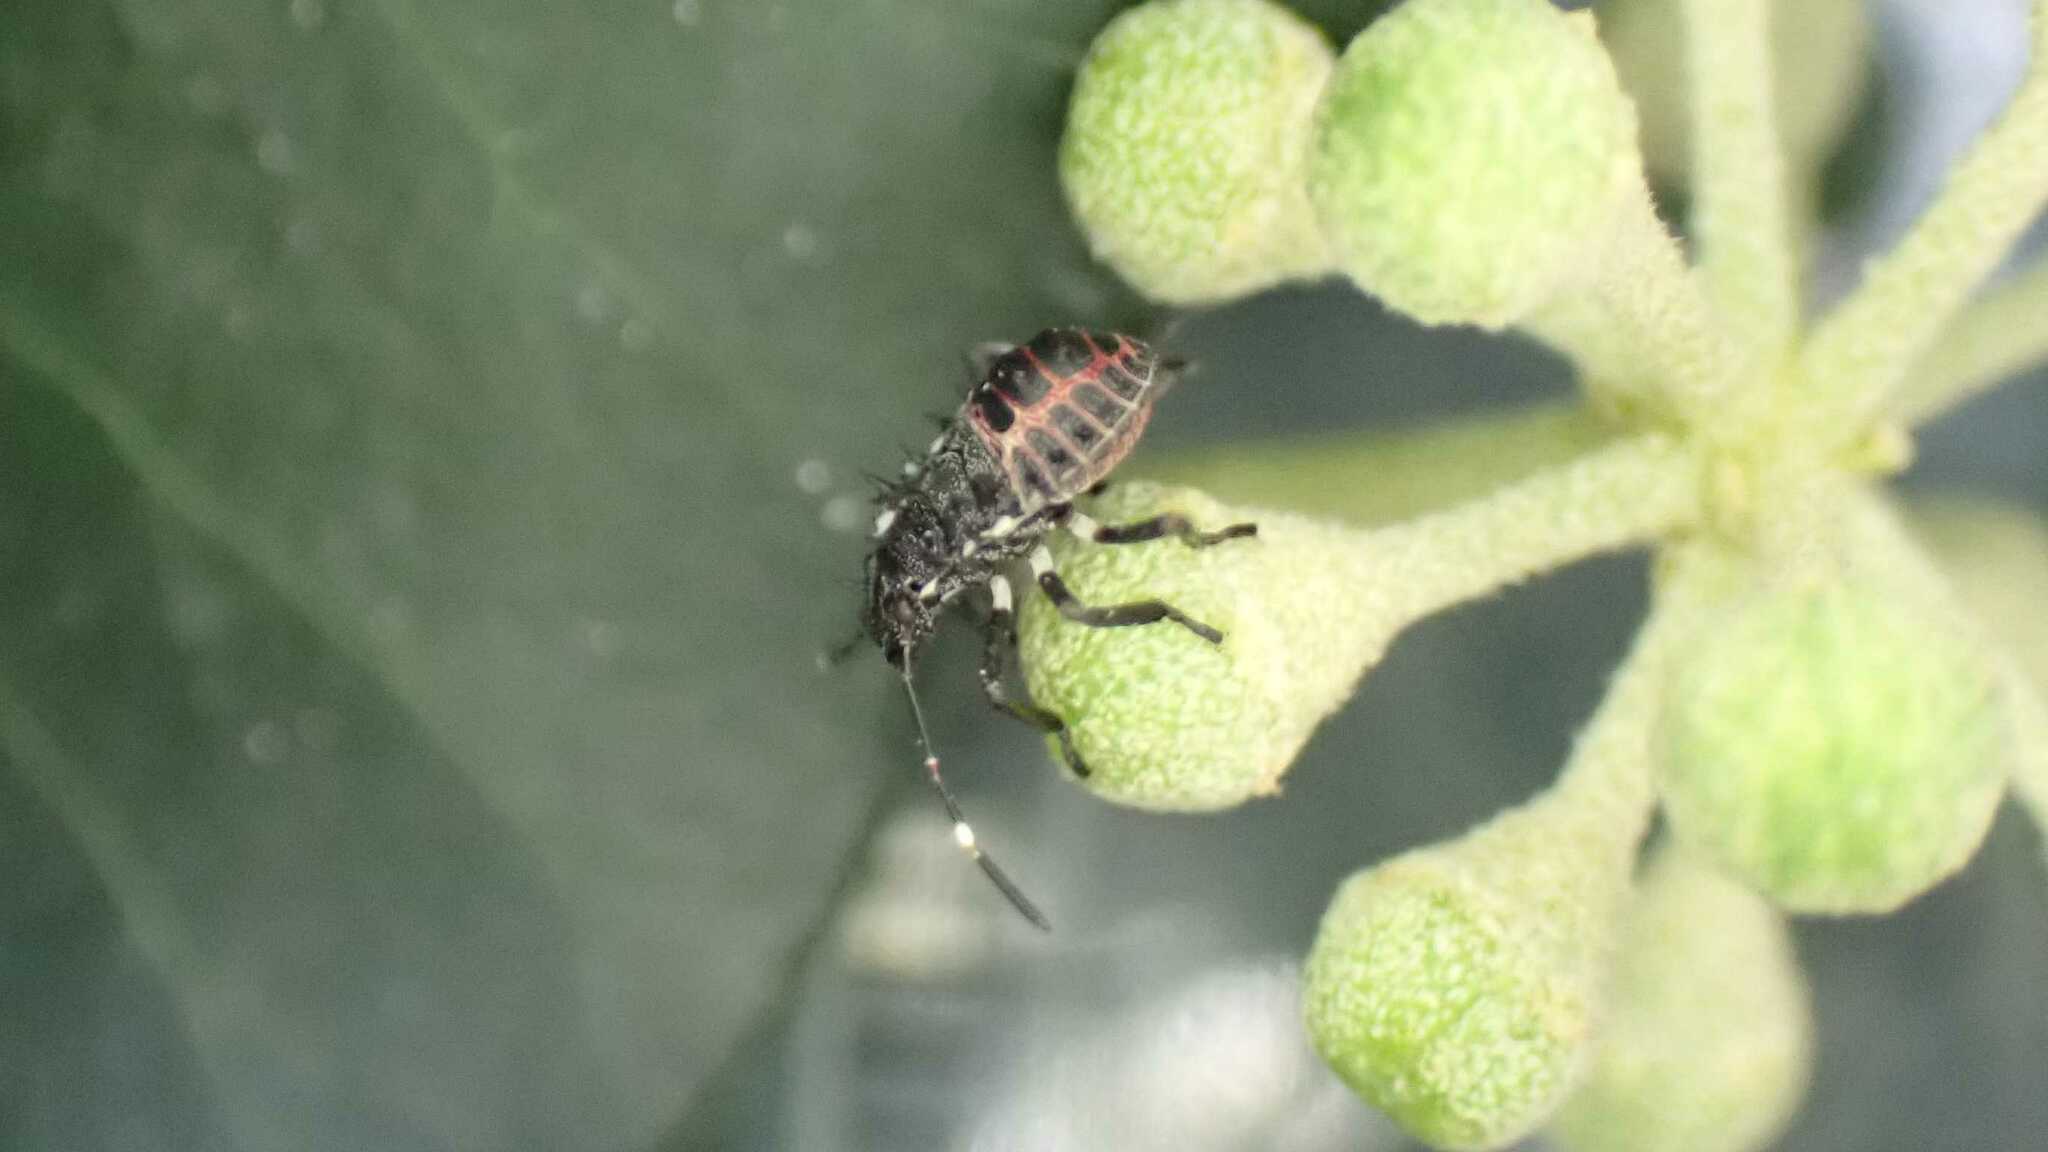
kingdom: Animalia
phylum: Arthropoda
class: Insecta
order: Hemiptera
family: Pentatomidae
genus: Halyomorpha
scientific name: Halyomorpha halys
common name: Brown marmorated stink bug
